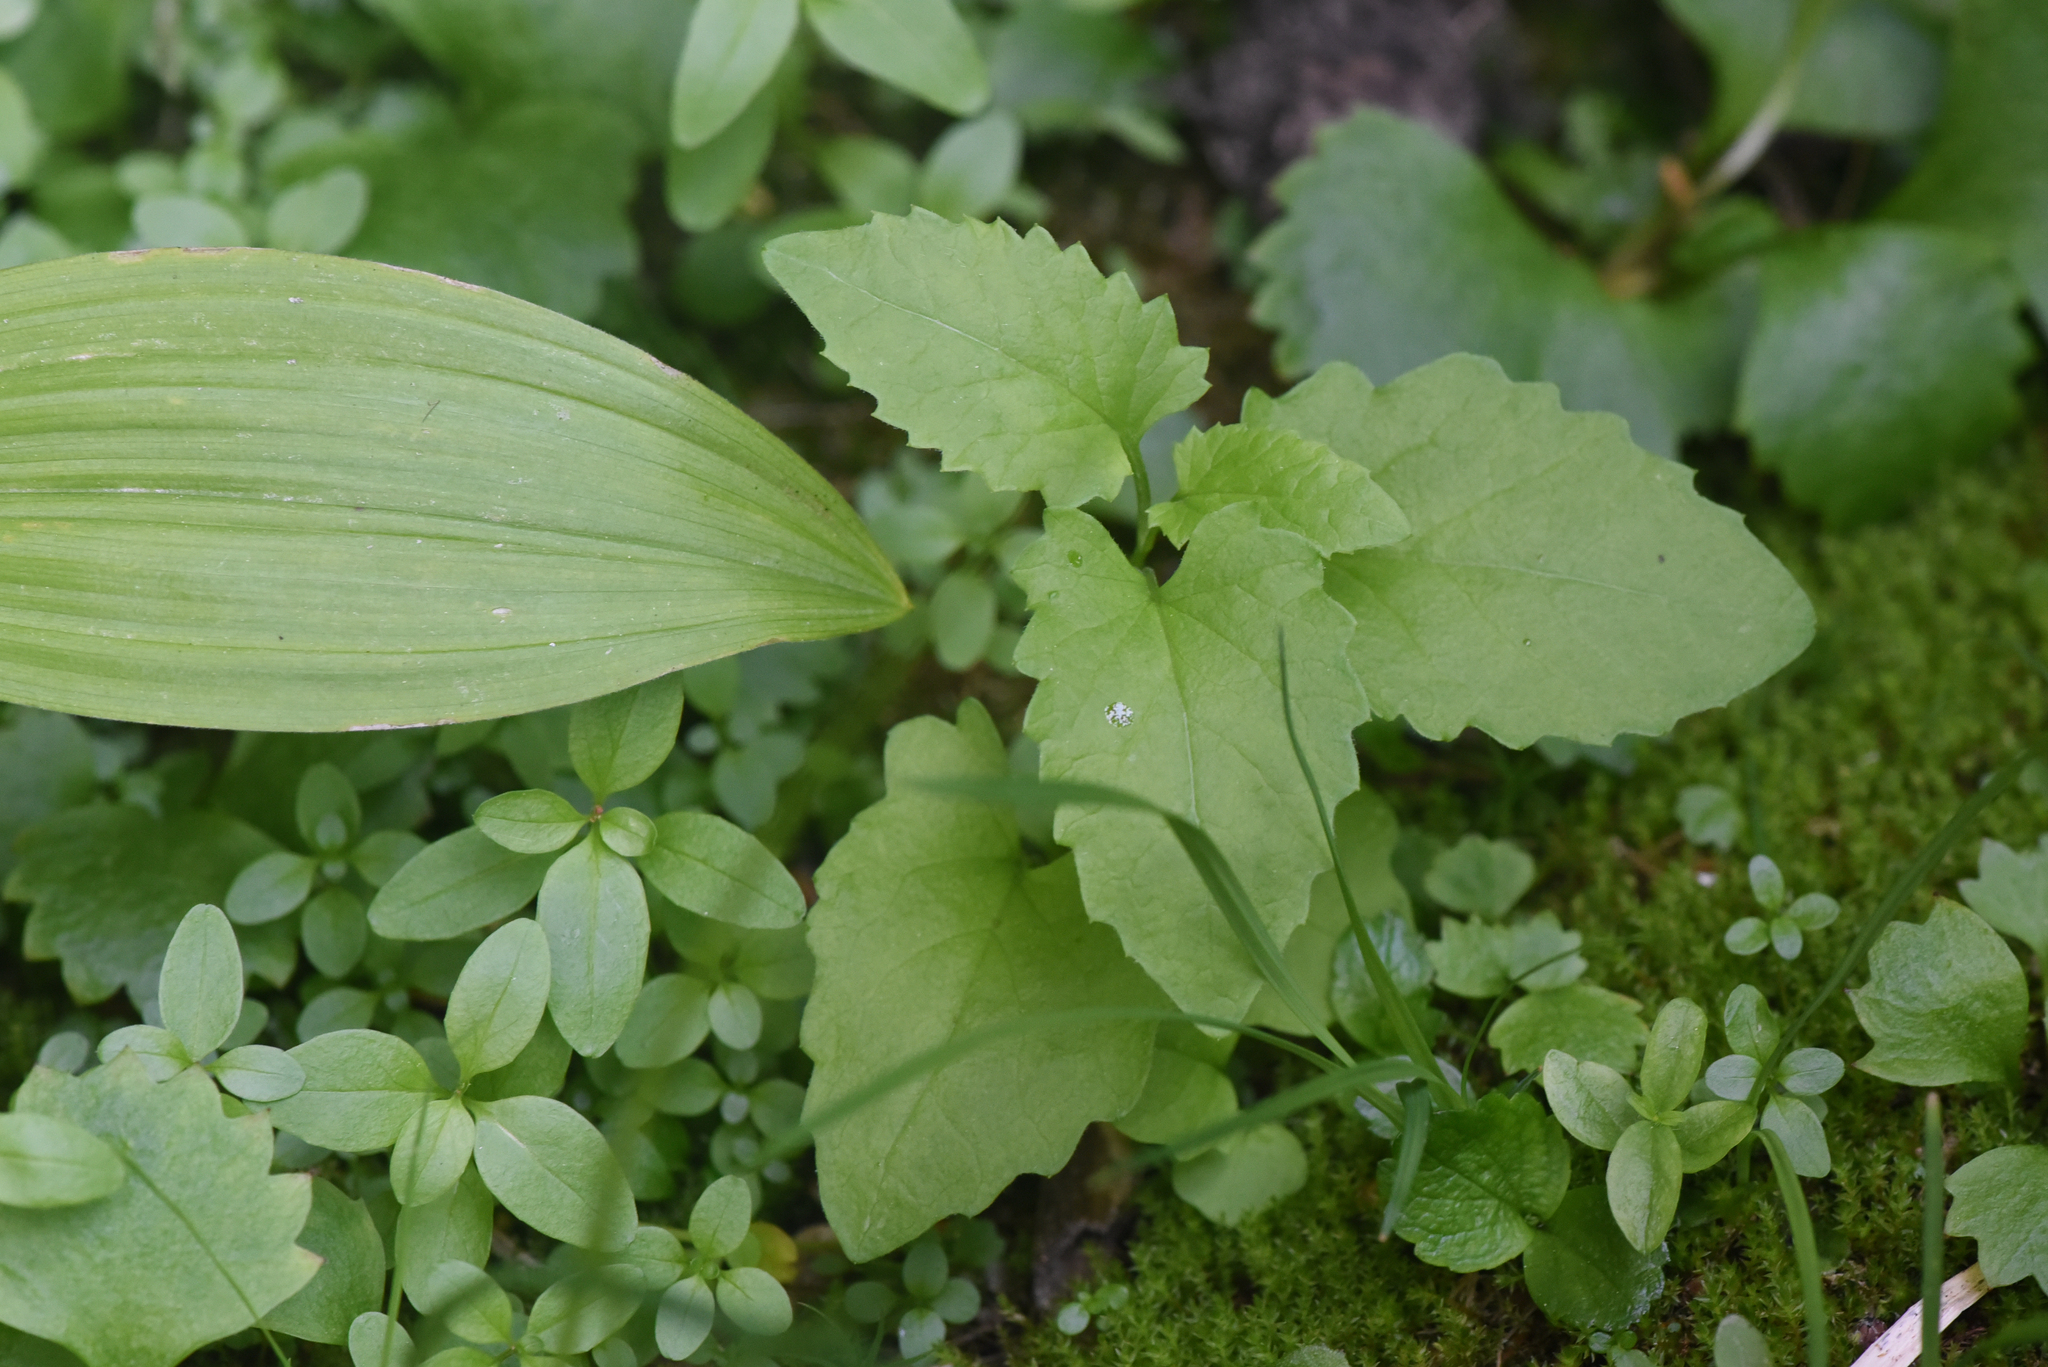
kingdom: Plantae
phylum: Tracheophyta
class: Magnoliopsida
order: Asterales
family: Asteraceae
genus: Senecio
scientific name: Senecio triangularis
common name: Arrowleaf butterweed
